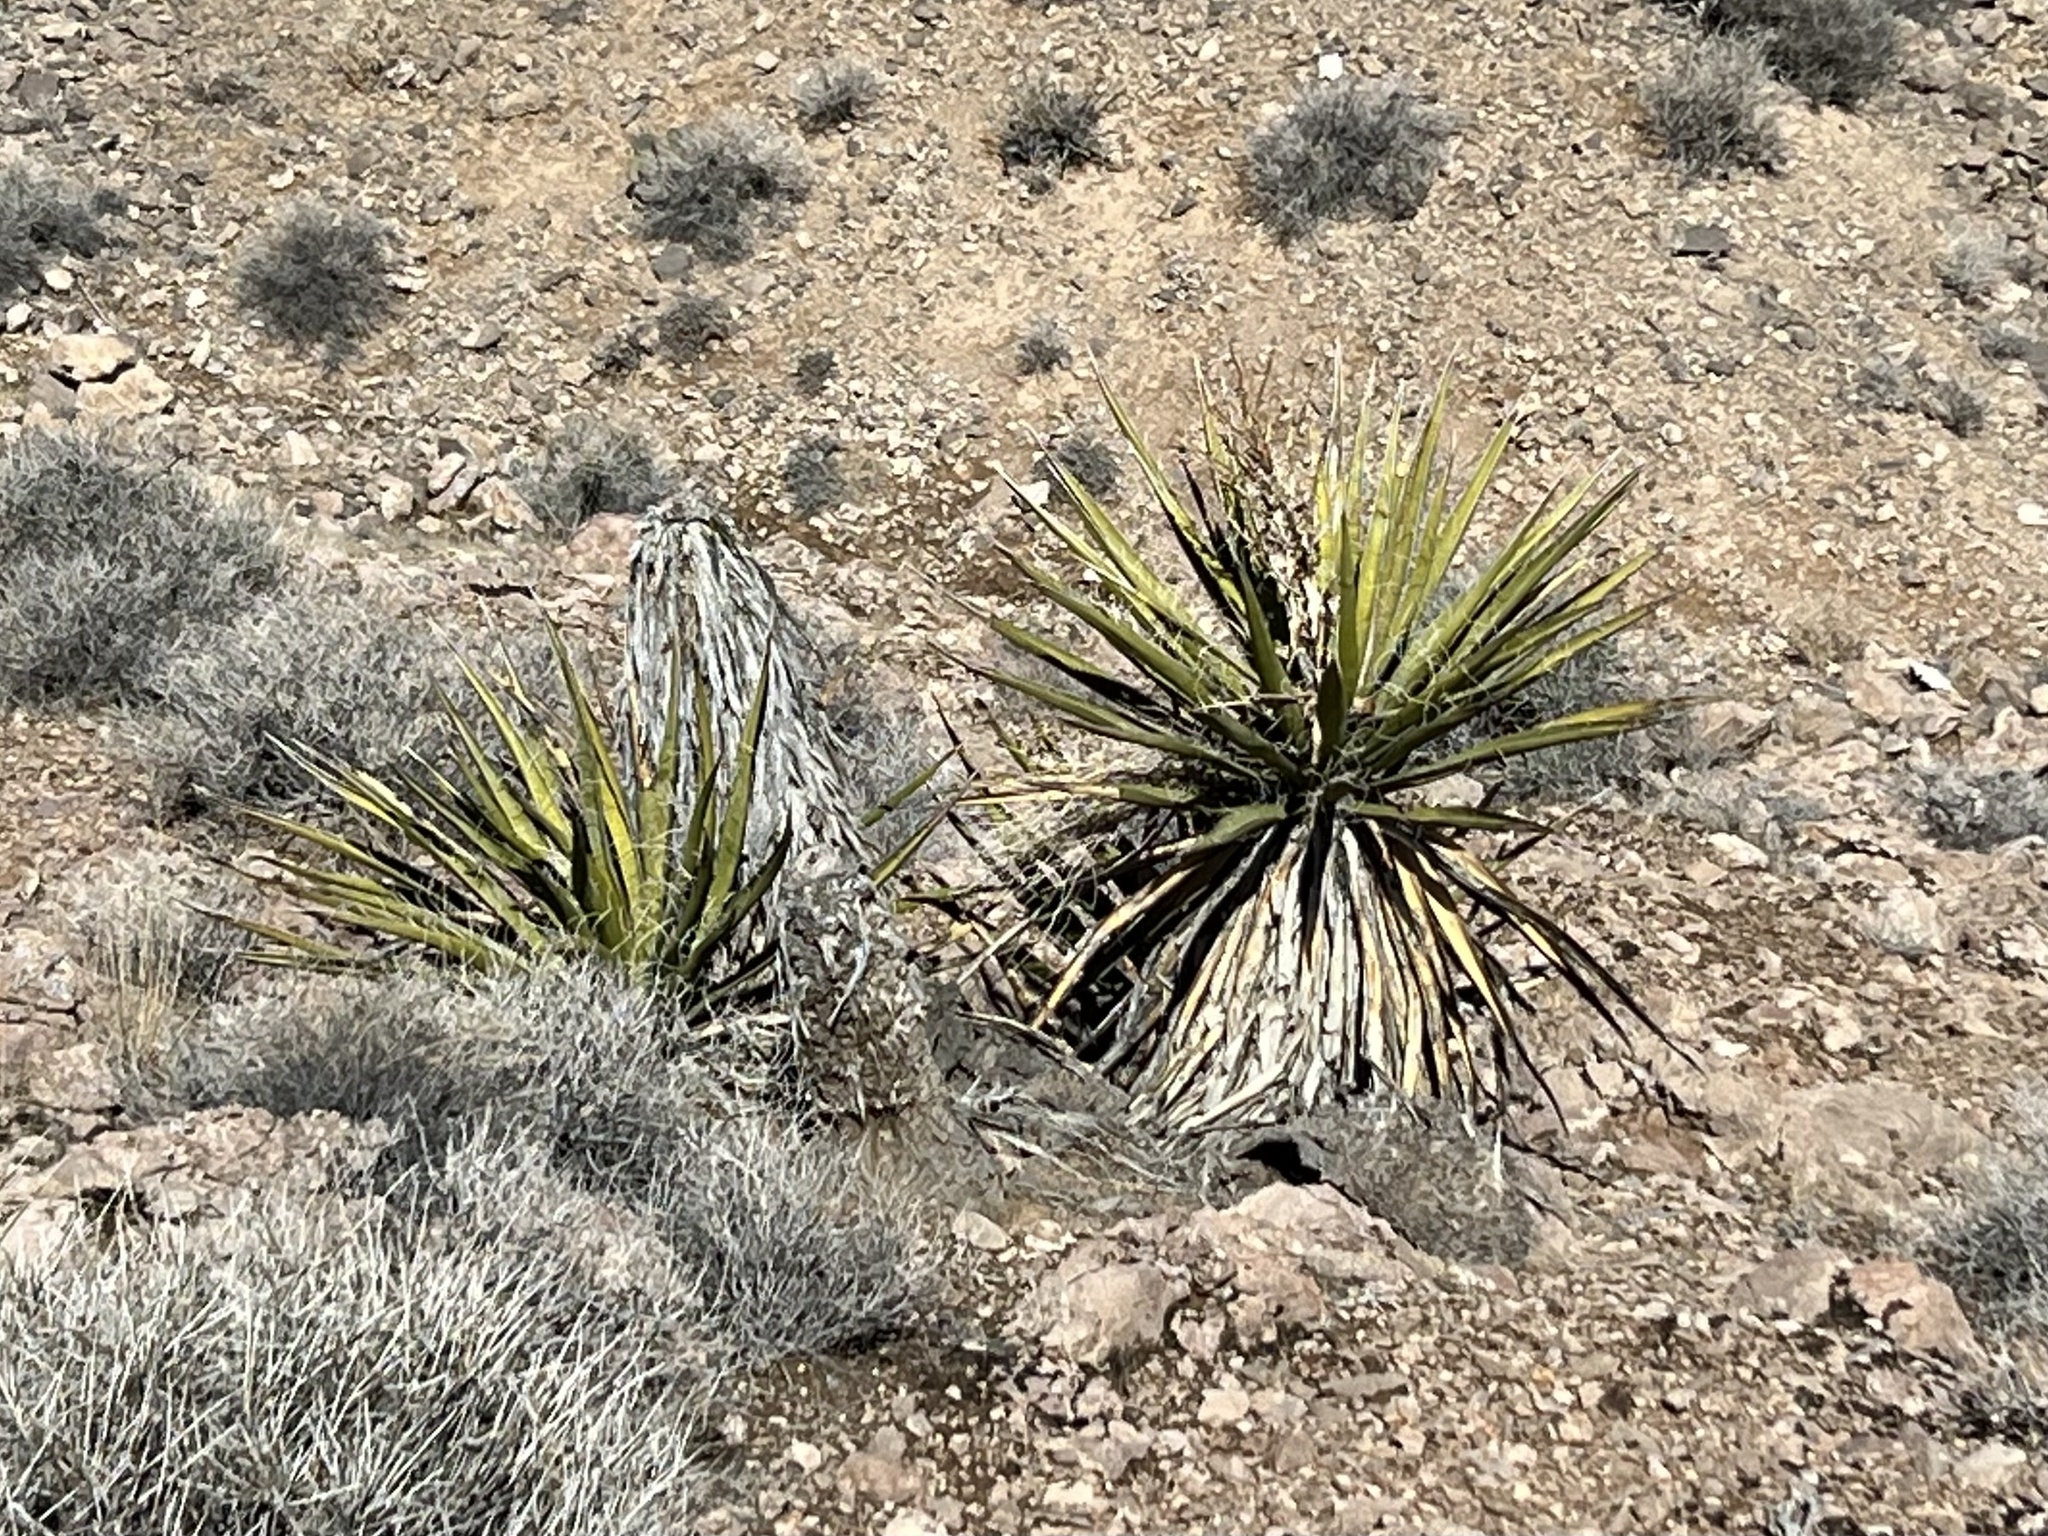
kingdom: Plantae
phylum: Tracheophyta
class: Liliopsida
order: Asparagales
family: Asparagaceae
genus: Yucca
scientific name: Yucca schidigera
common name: Mojave yucca
